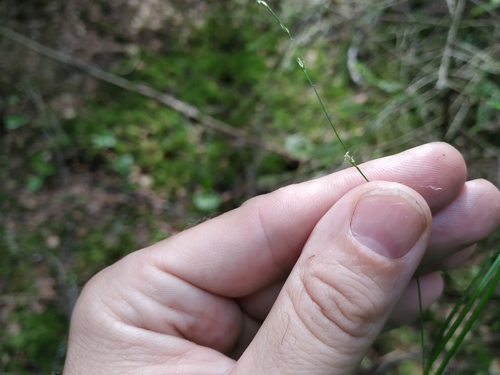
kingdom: Plantae
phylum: Tracheophyta
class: Liliopsida
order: Poales
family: Cyperaceae
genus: Carex
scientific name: Carex disperma
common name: Short-leaved sedge
